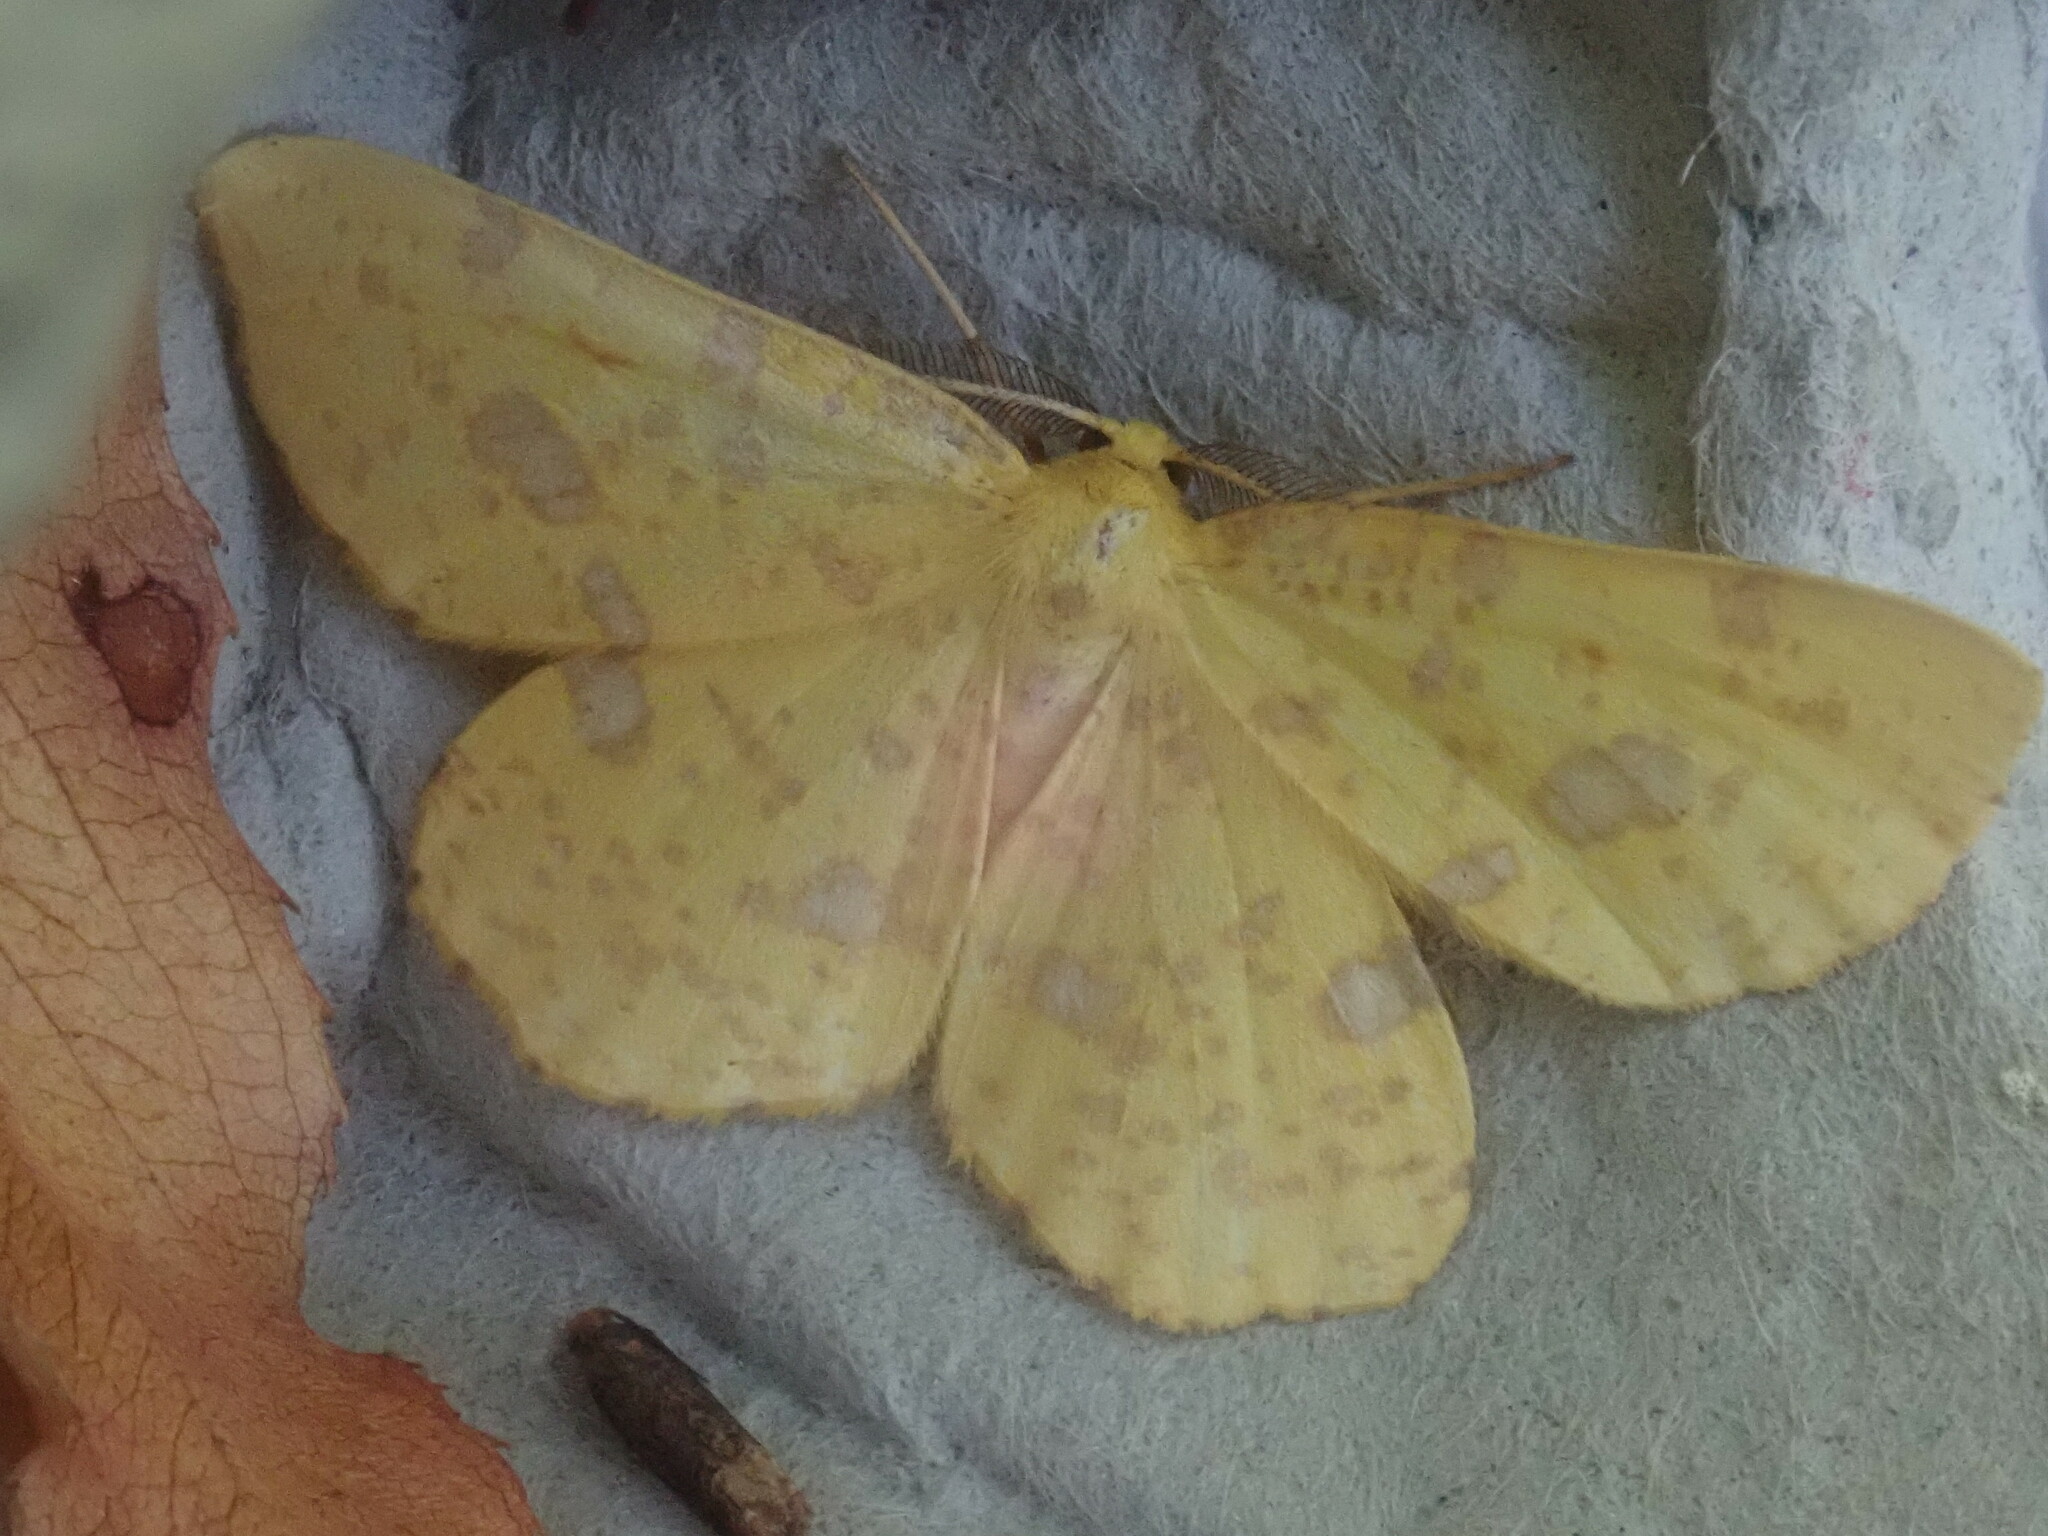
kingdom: Animalia
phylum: Arthropoda
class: Insecta
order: Lepidoptera
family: Geometridae
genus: Xanthotype
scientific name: Xanthotype
